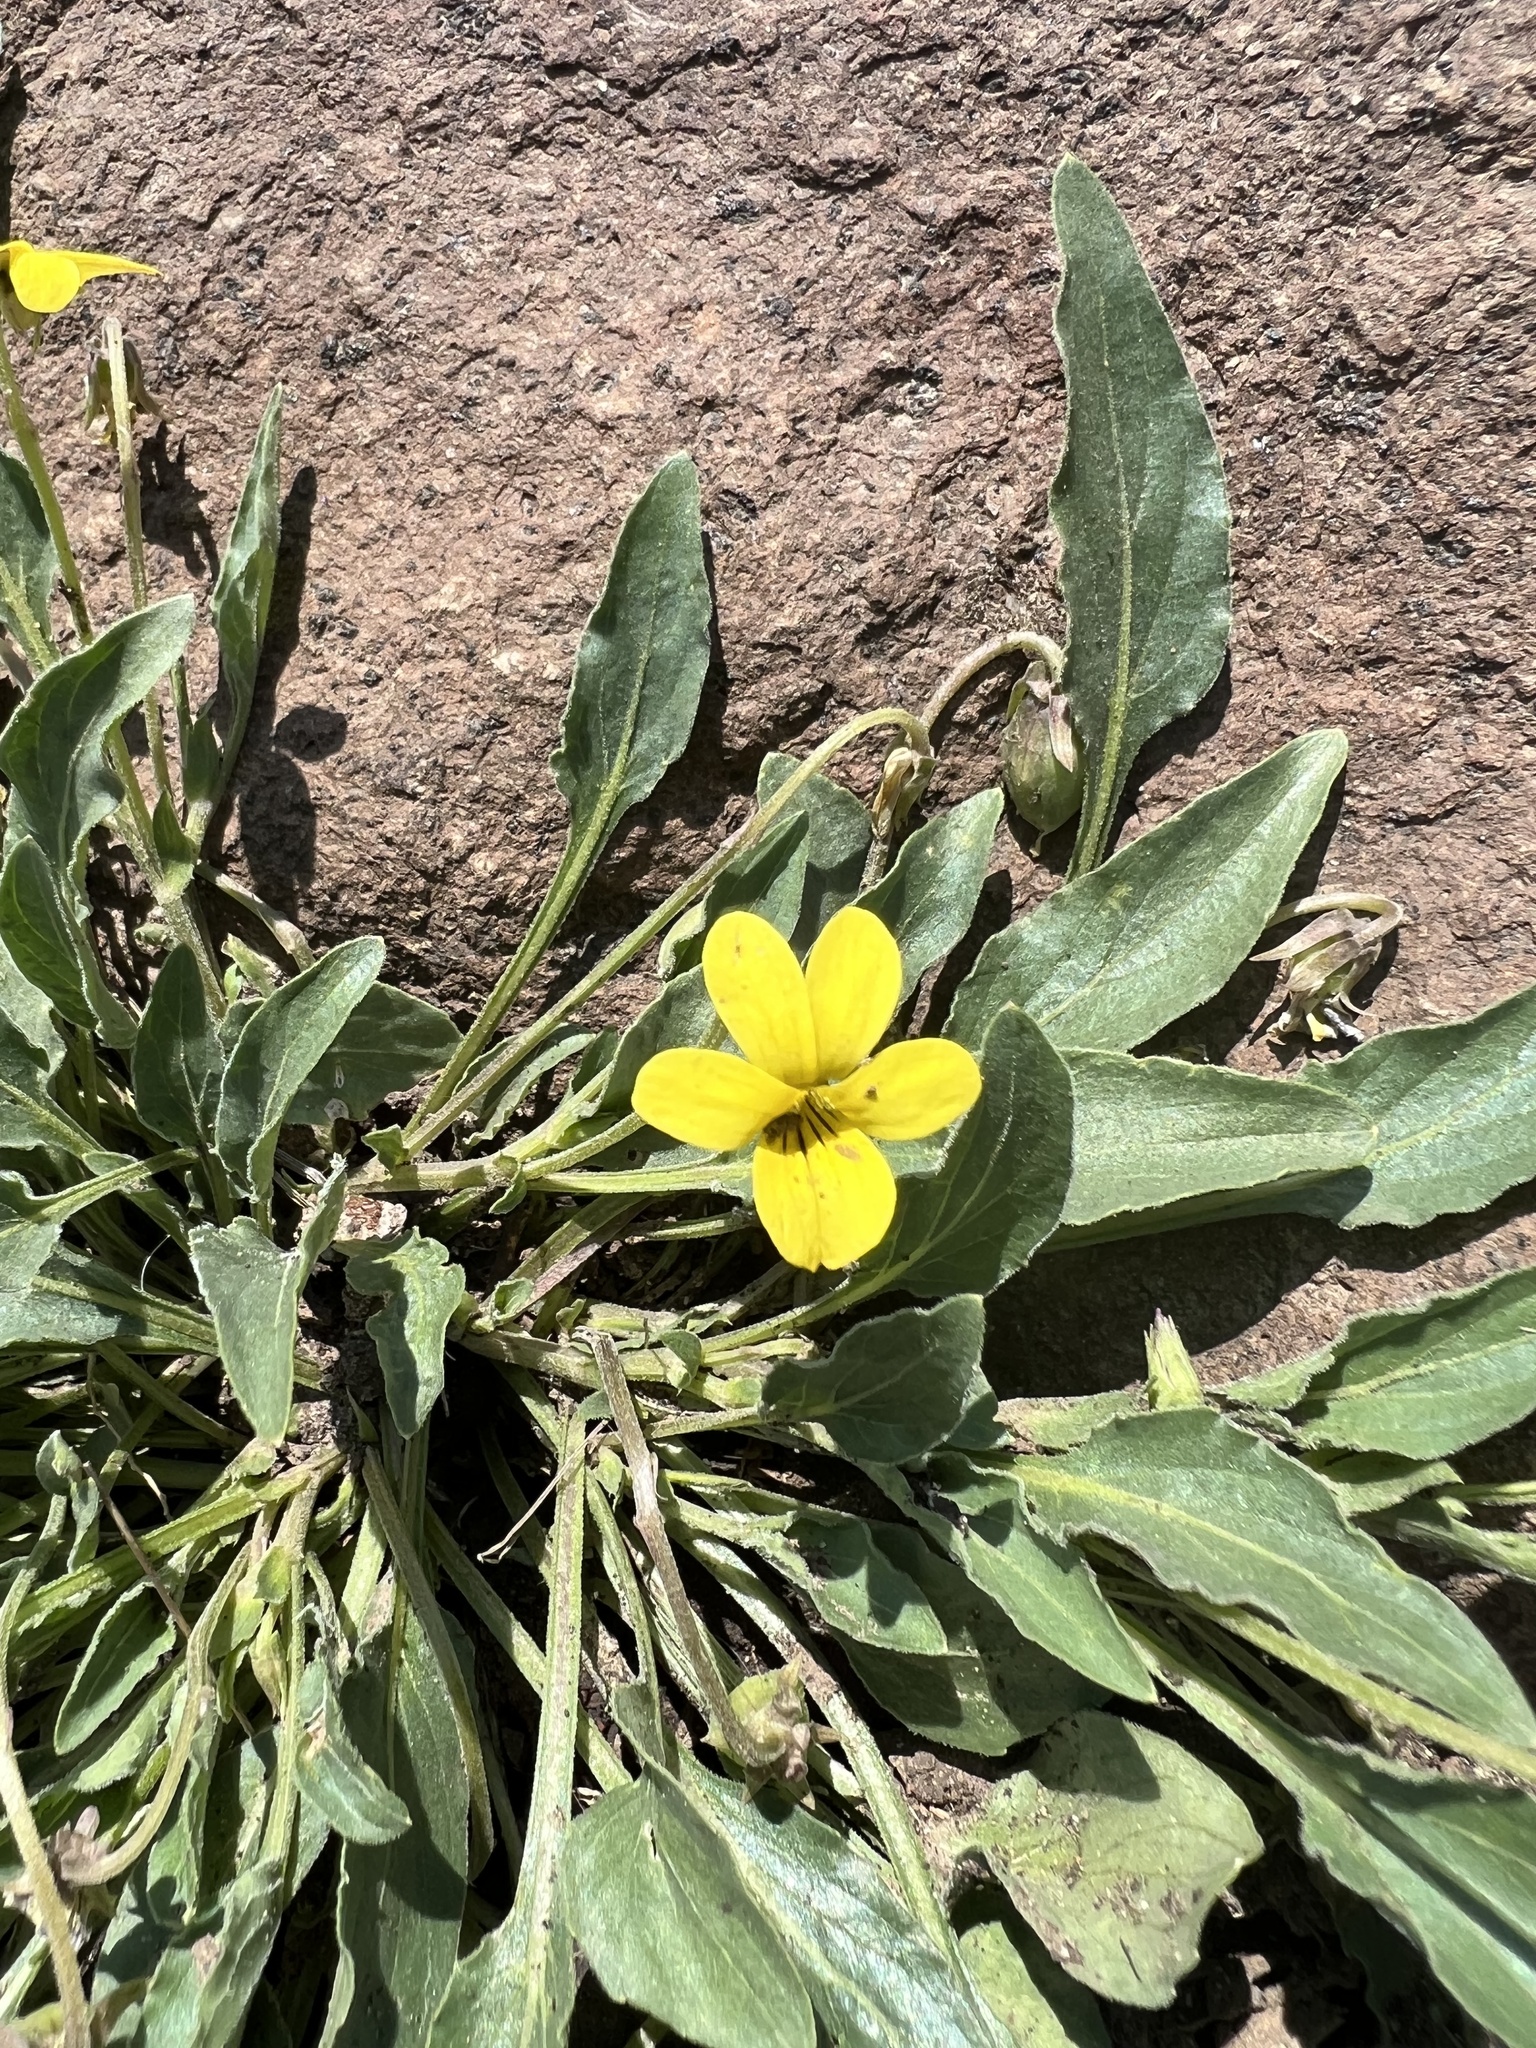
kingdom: Plantae
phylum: Tracheophyta
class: Magnoliopsida
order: Malpighiales
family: Violaceae
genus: Viola
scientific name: Viola nuttallii
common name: Yellow prairie violet
